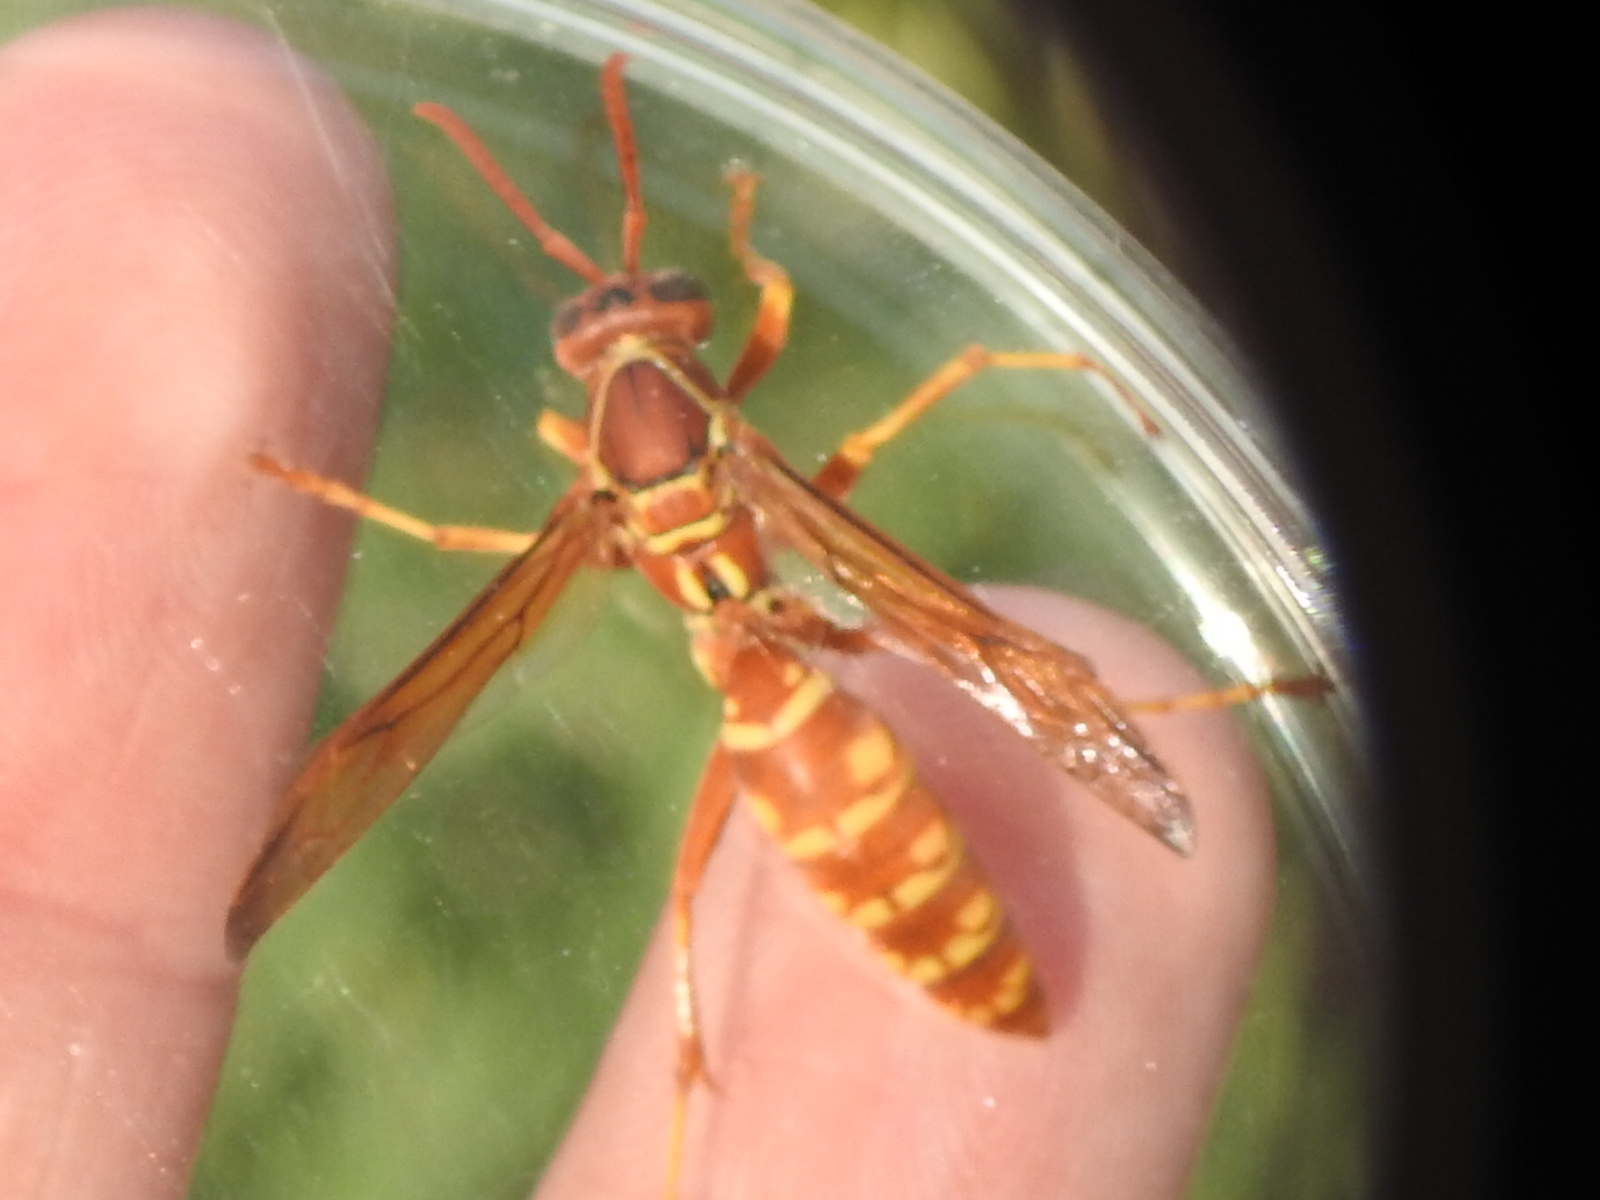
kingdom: Animalia
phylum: Arthropoda
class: Insecta
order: Hymenoptera
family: Eumenidae
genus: Polistes
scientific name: Polistes apachus
